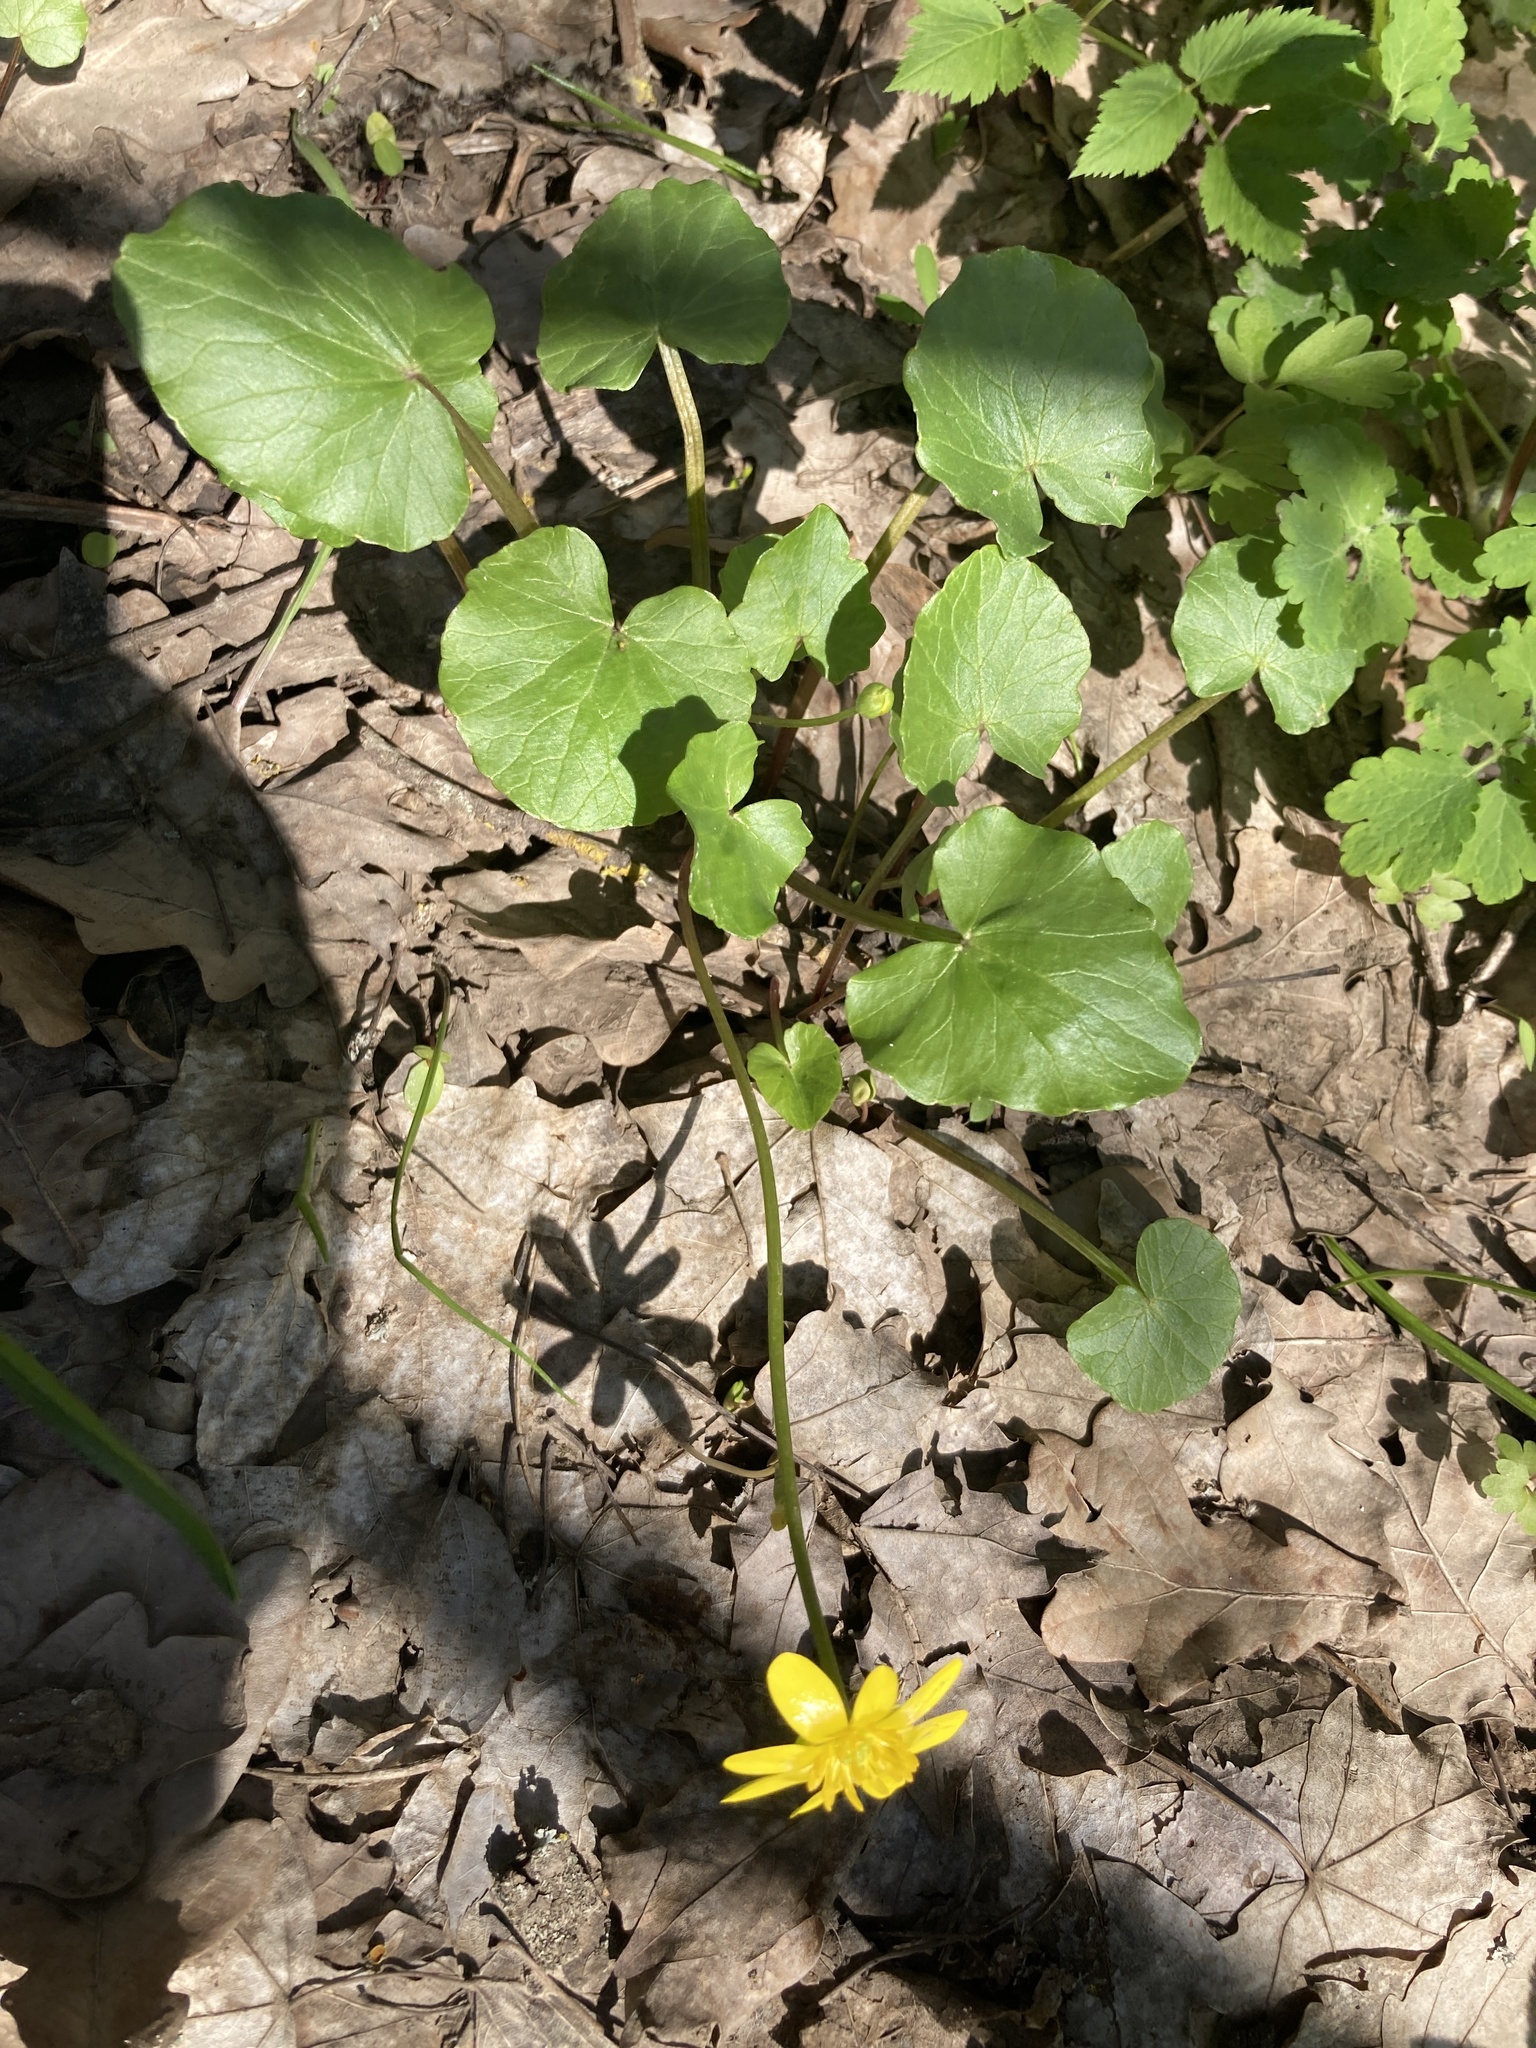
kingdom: Plantae
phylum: Tracheophyta
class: Magnoliopsida
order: Ranunculales
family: Ranunculaceae
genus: Ficaria
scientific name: Ficaria verna
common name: Lesser celandine
